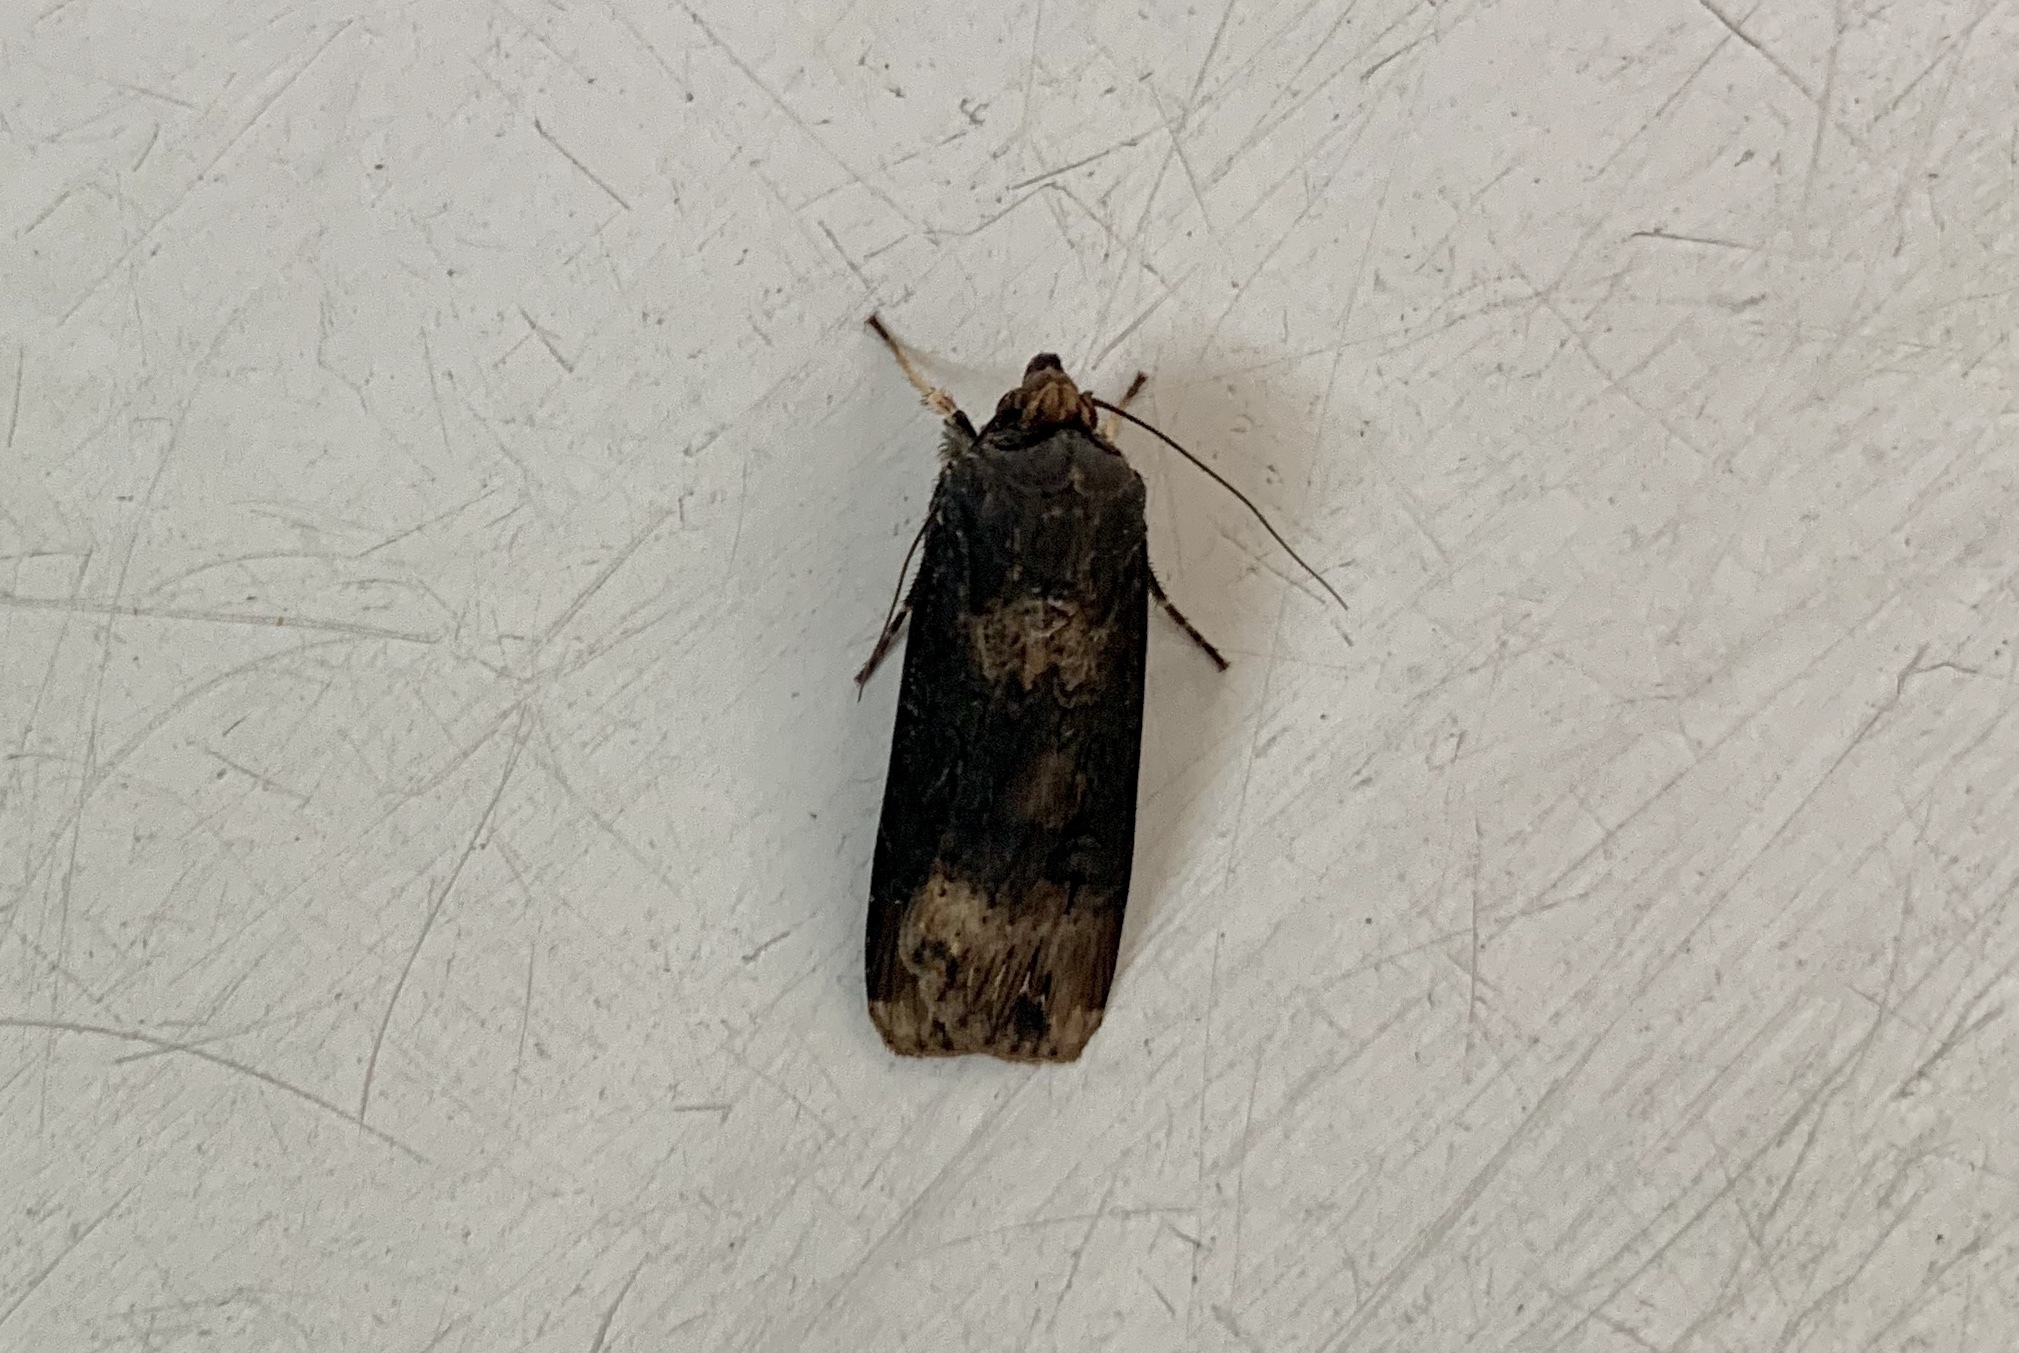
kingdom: Animalia
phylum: Arthropoda
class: Insecta
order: Lepidoptera
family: Noctuidae
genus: Agrotis
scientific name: Agrotis ipsilon
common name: Dark sword-grass
